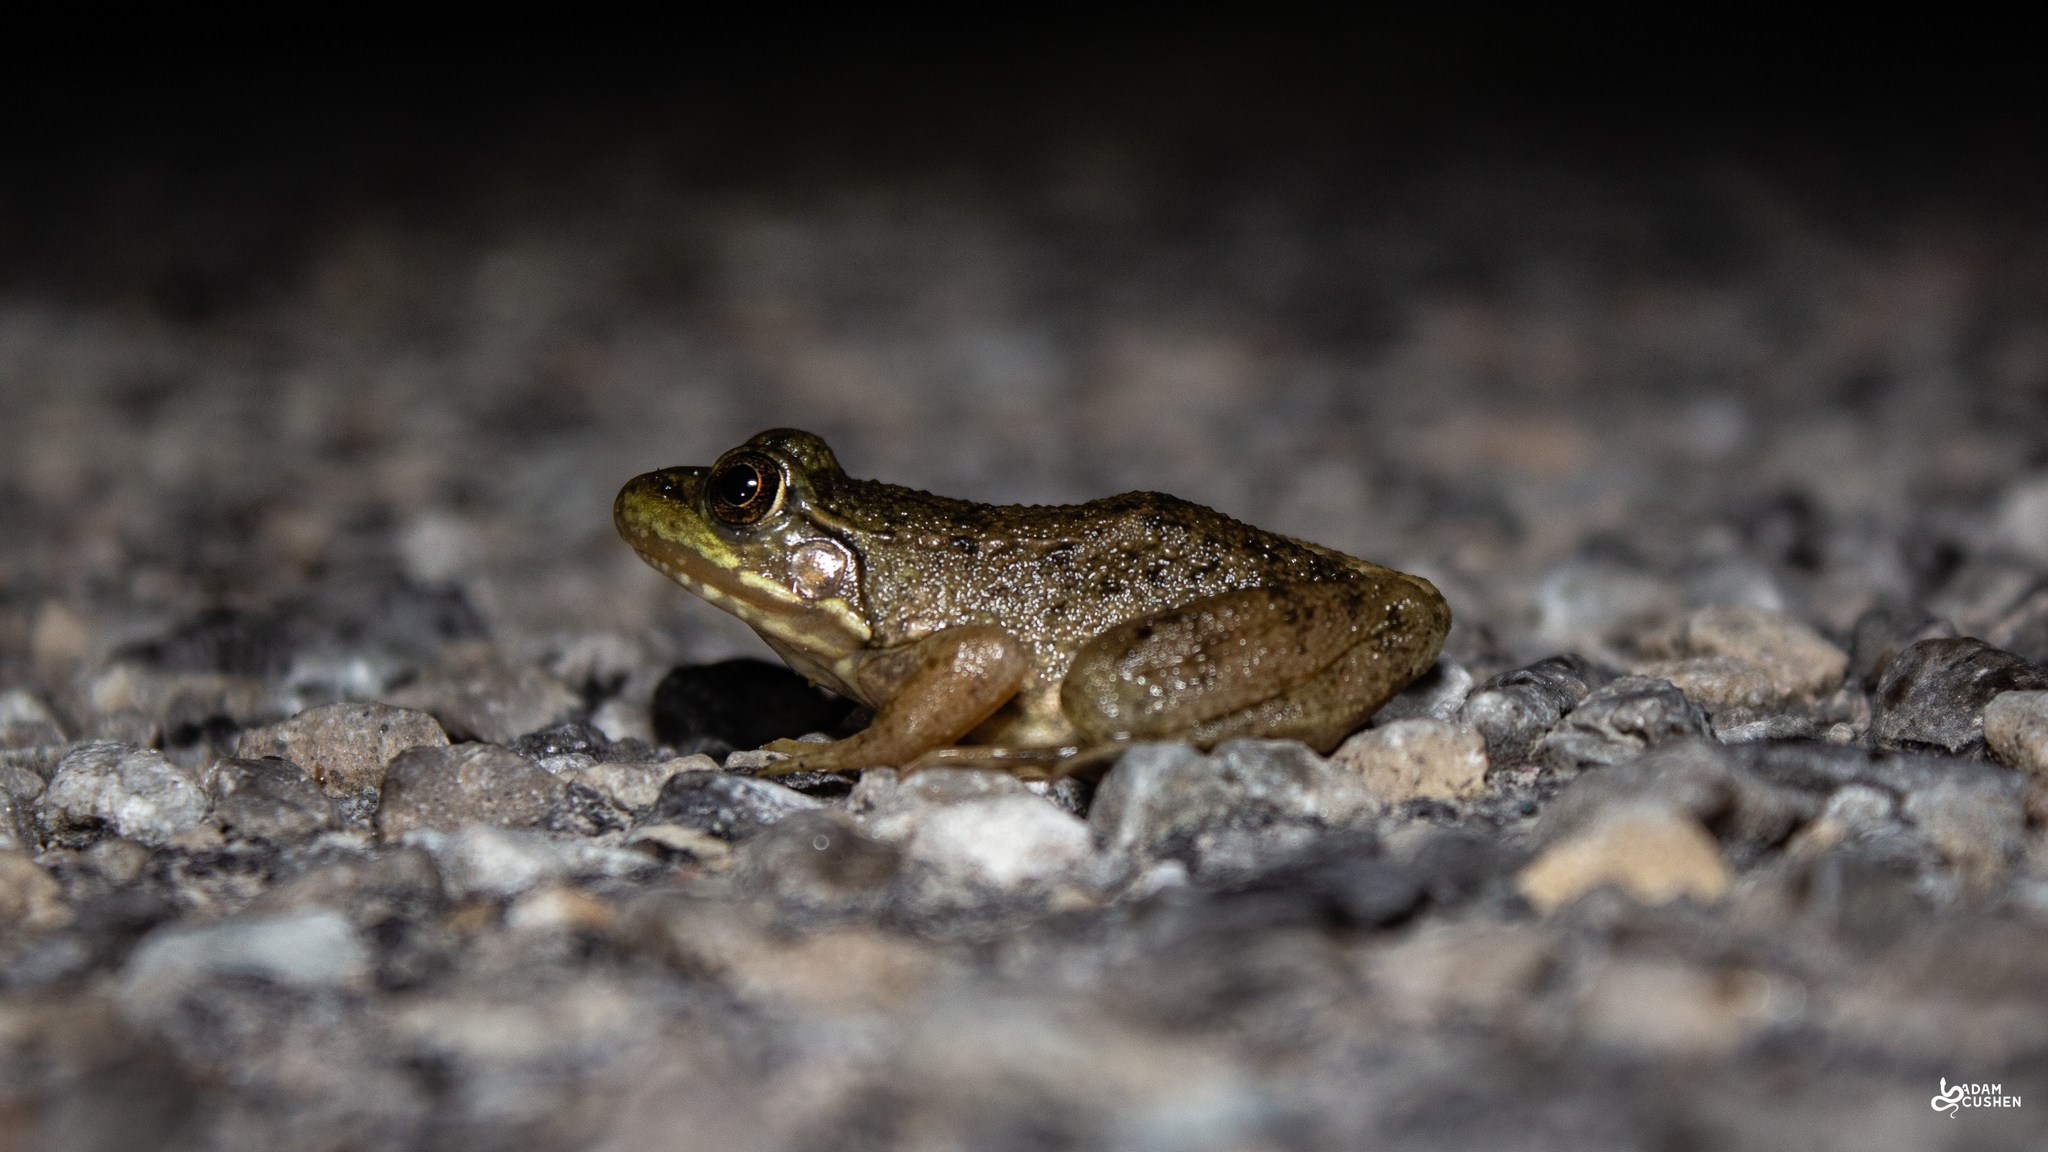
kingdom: Animalia
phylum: Chordata
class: Amphibia
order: Anura
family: Ranidae
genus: Lithobates
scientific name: Lithobates clamitans
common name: Green frog
